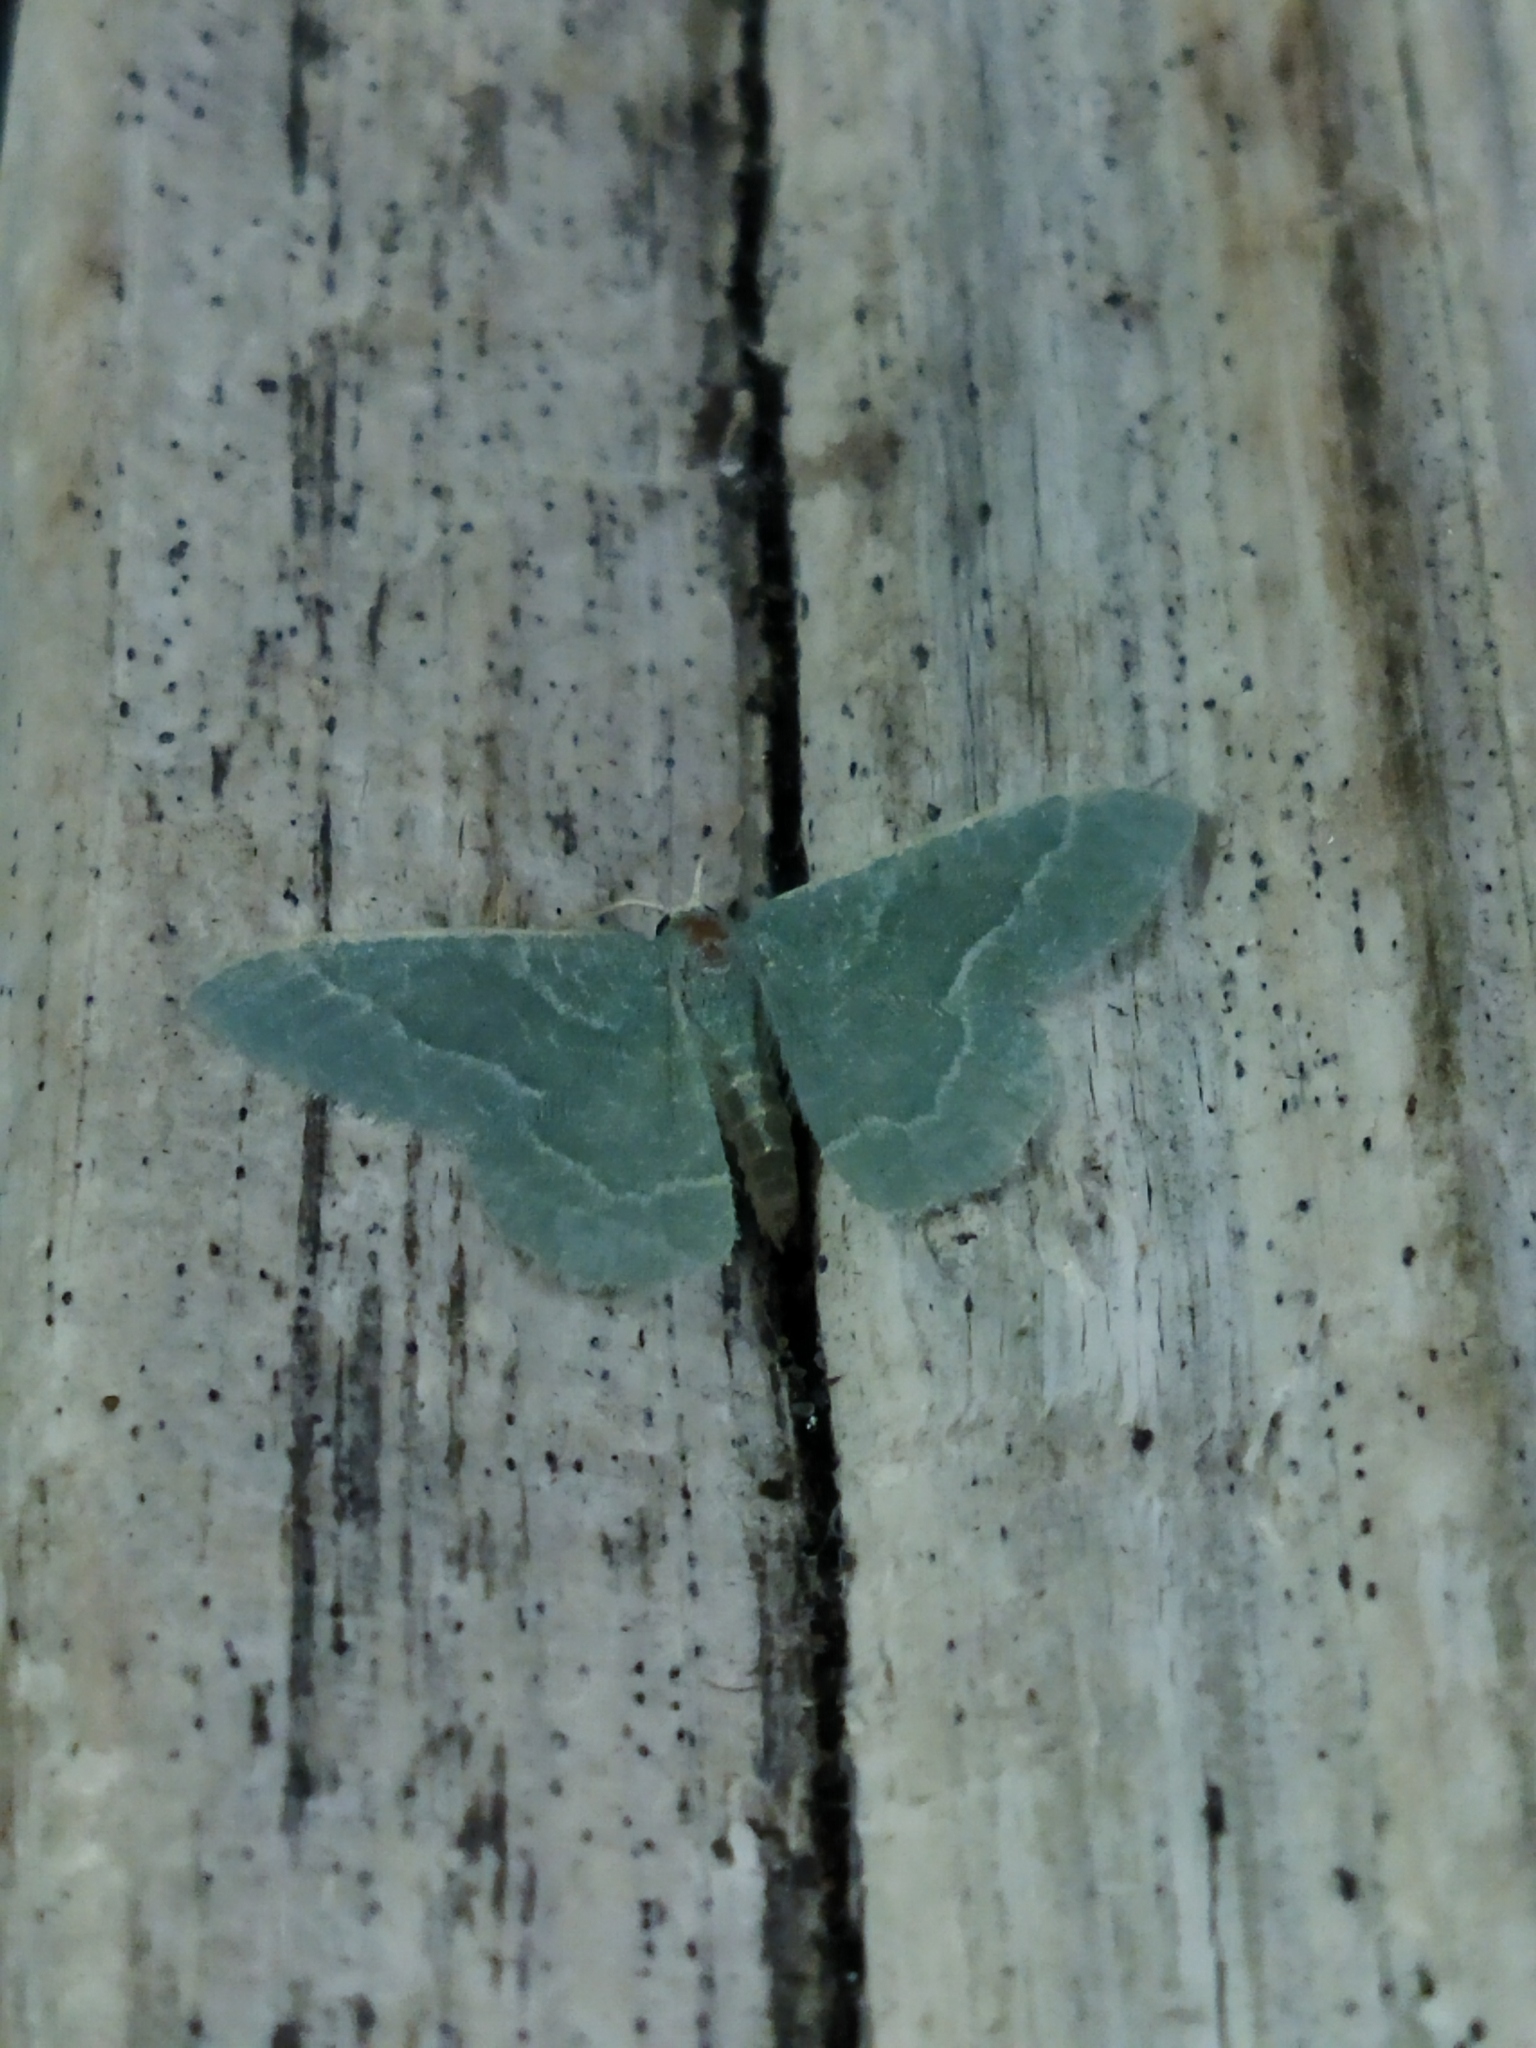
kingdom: Animalia
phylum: Arthropoda
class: Insecta
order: Lepidoptera
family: Geometridae
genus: Chlorissa
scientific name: Chlorissa etruscaria
